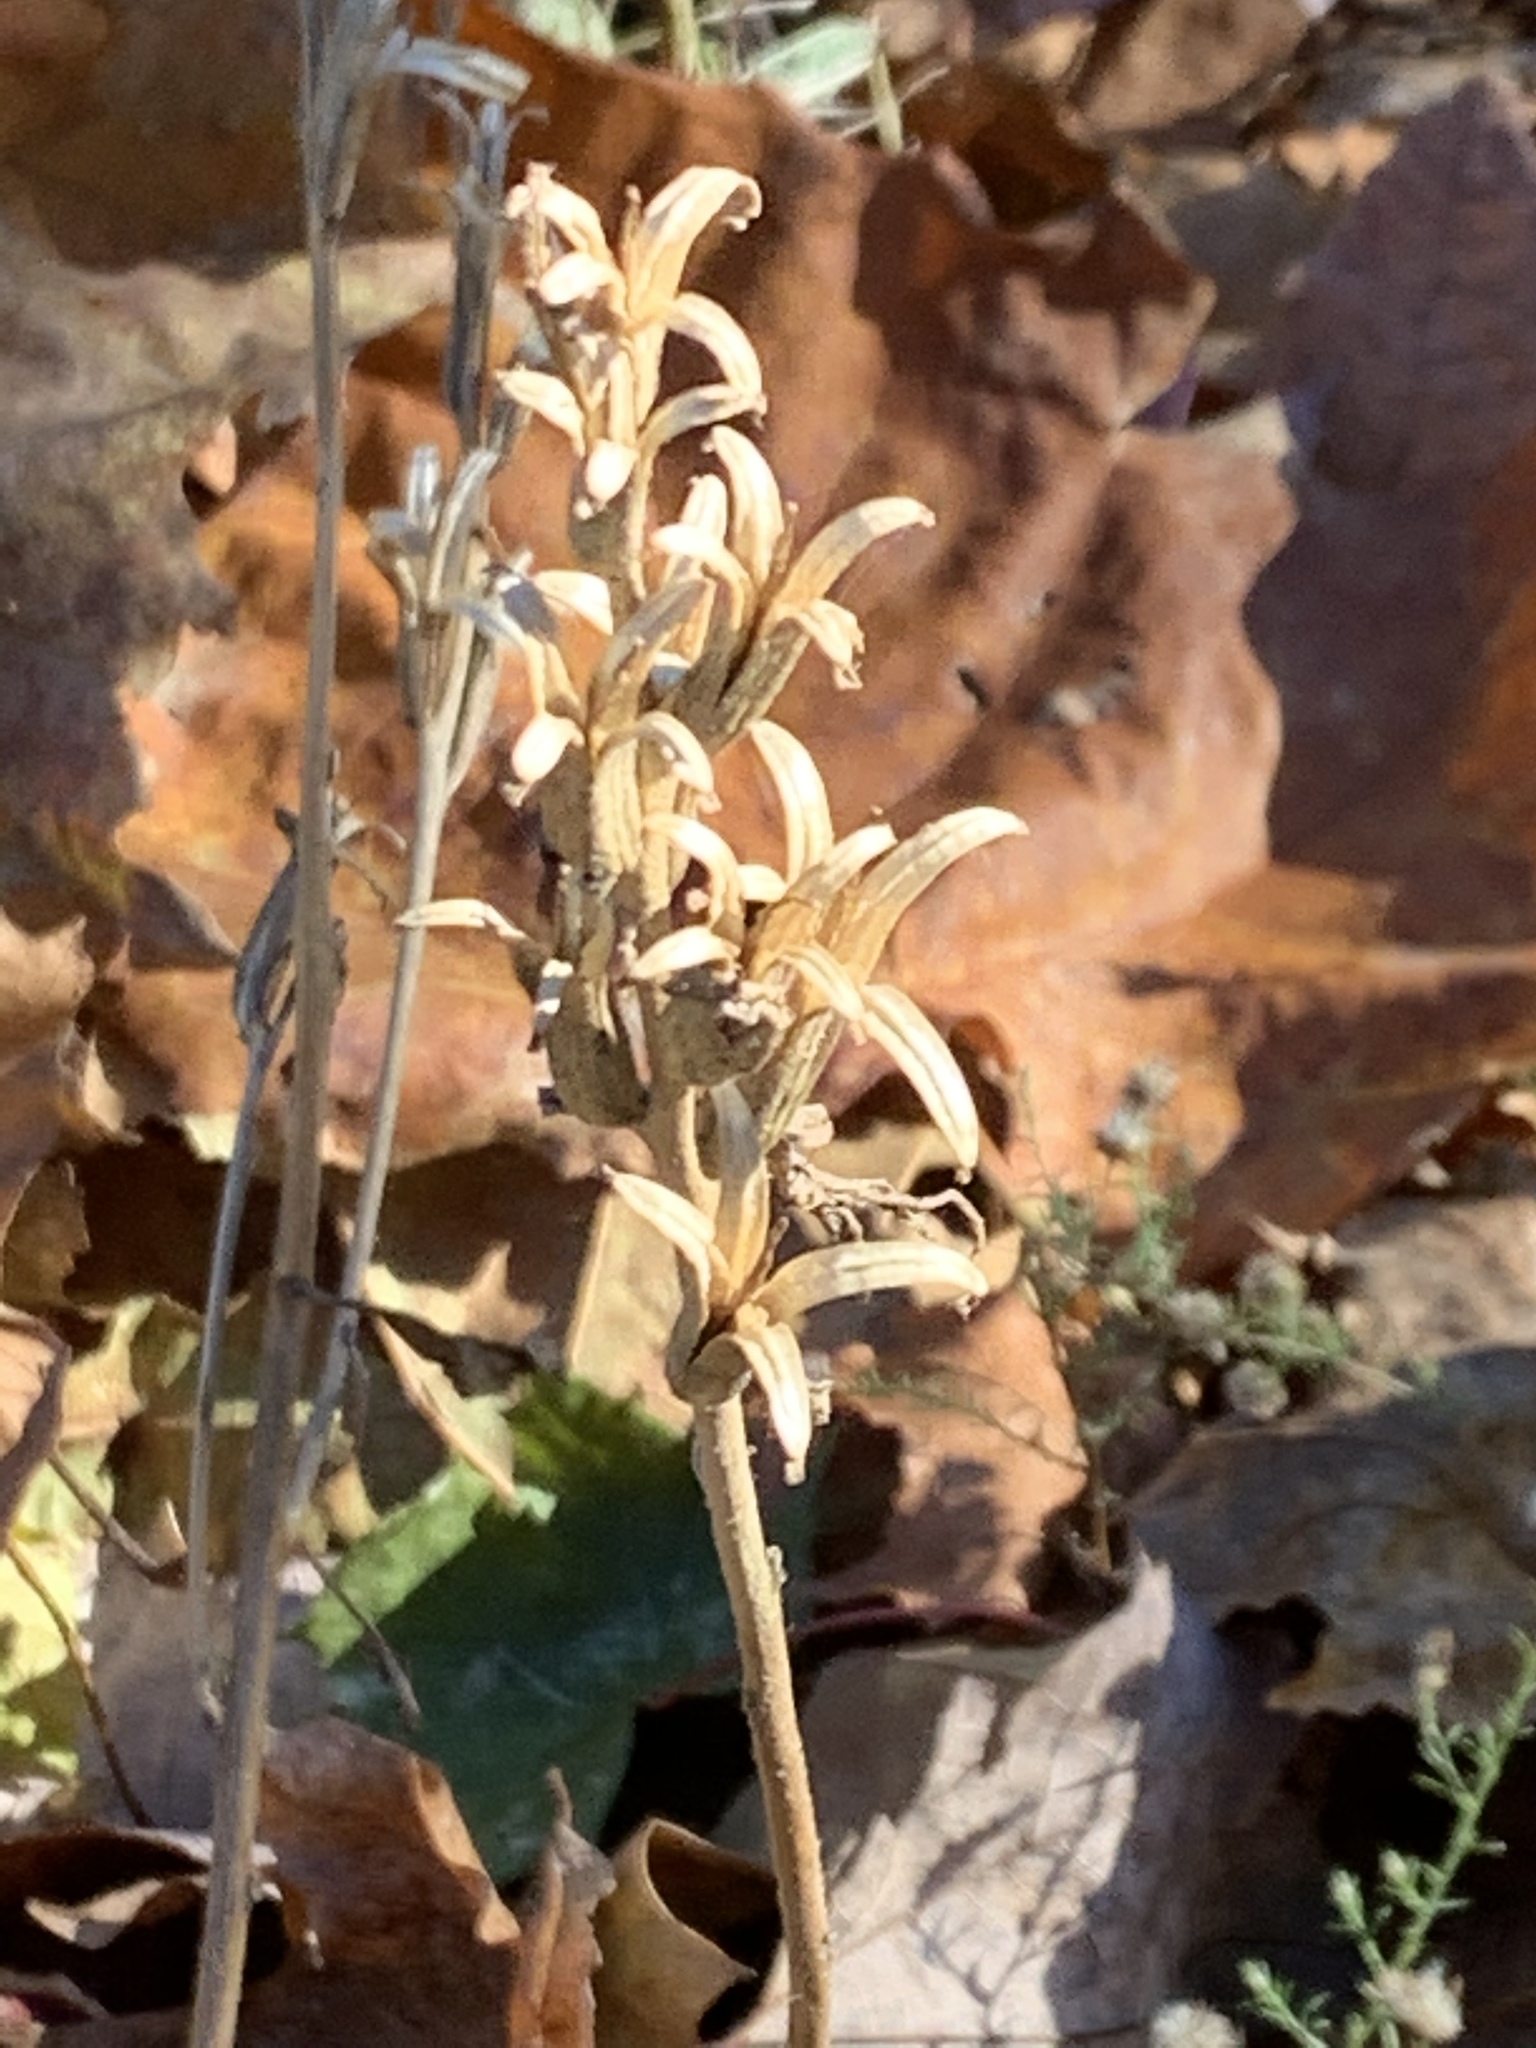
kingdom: Plantae
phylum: Tracheophyta
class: Magnoliopsida
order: Myrtales
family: Onagraceae
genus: Oenothera
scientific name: Oenothera biennis
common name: Common evening-primrose
